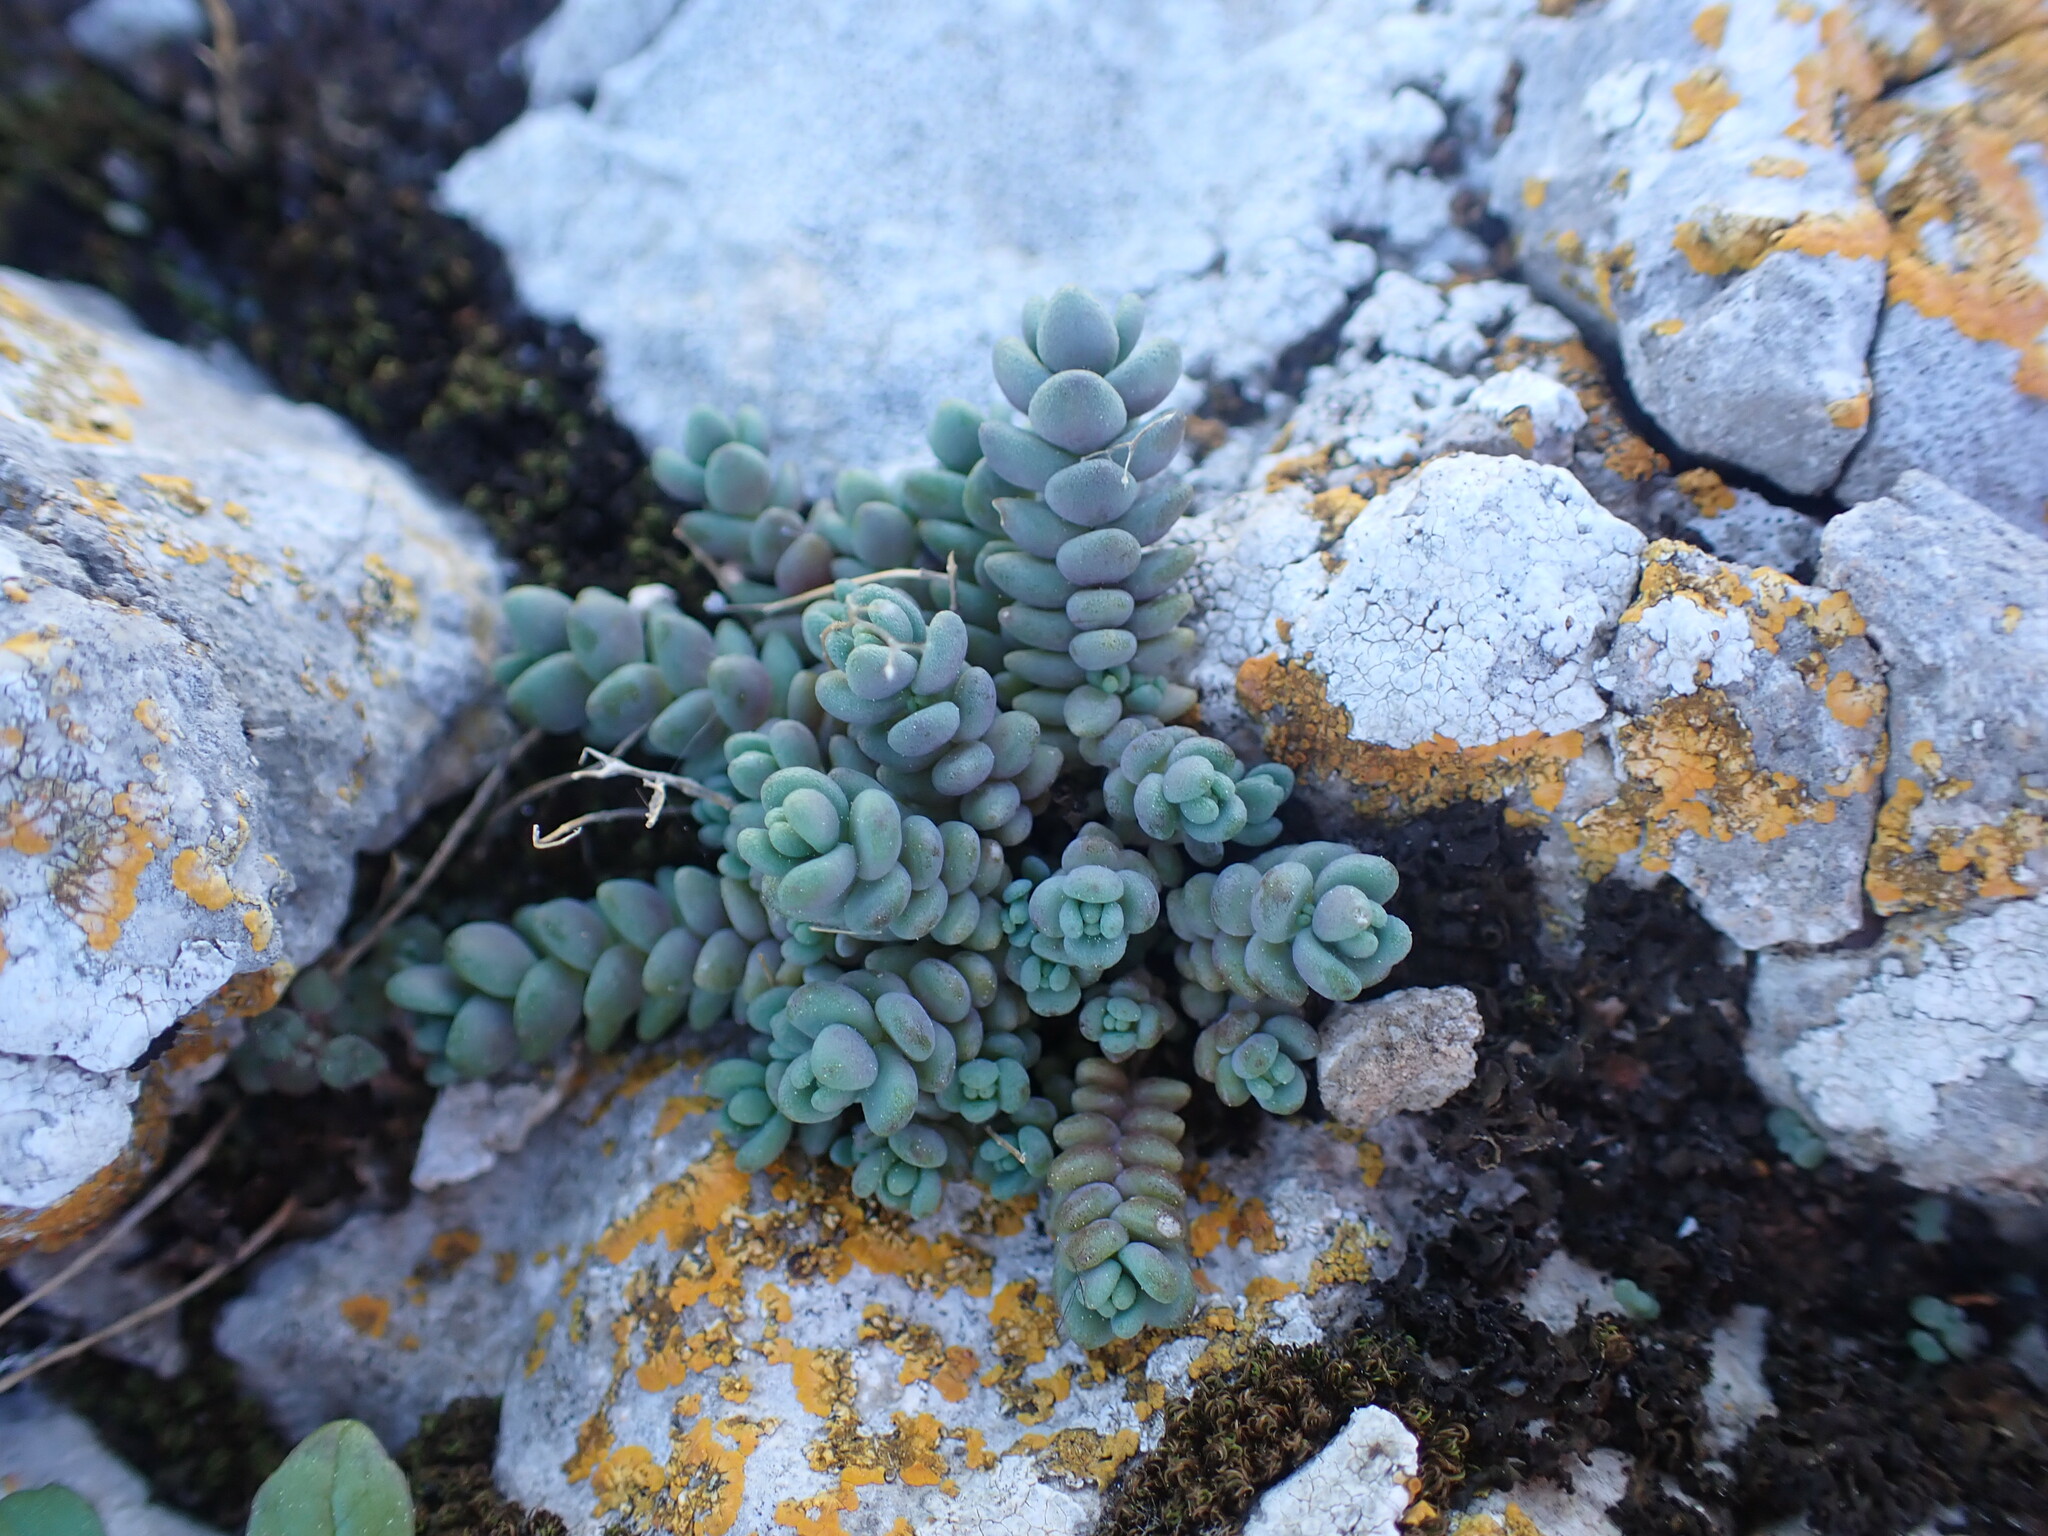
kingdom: Plantae
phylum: Tracheophyta
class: Magnoliopsida
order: Saxifragales
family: Crassulaceae
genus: Sedum
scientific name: Sedum dasyphyllum
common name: Thick-leaf stonecrop
